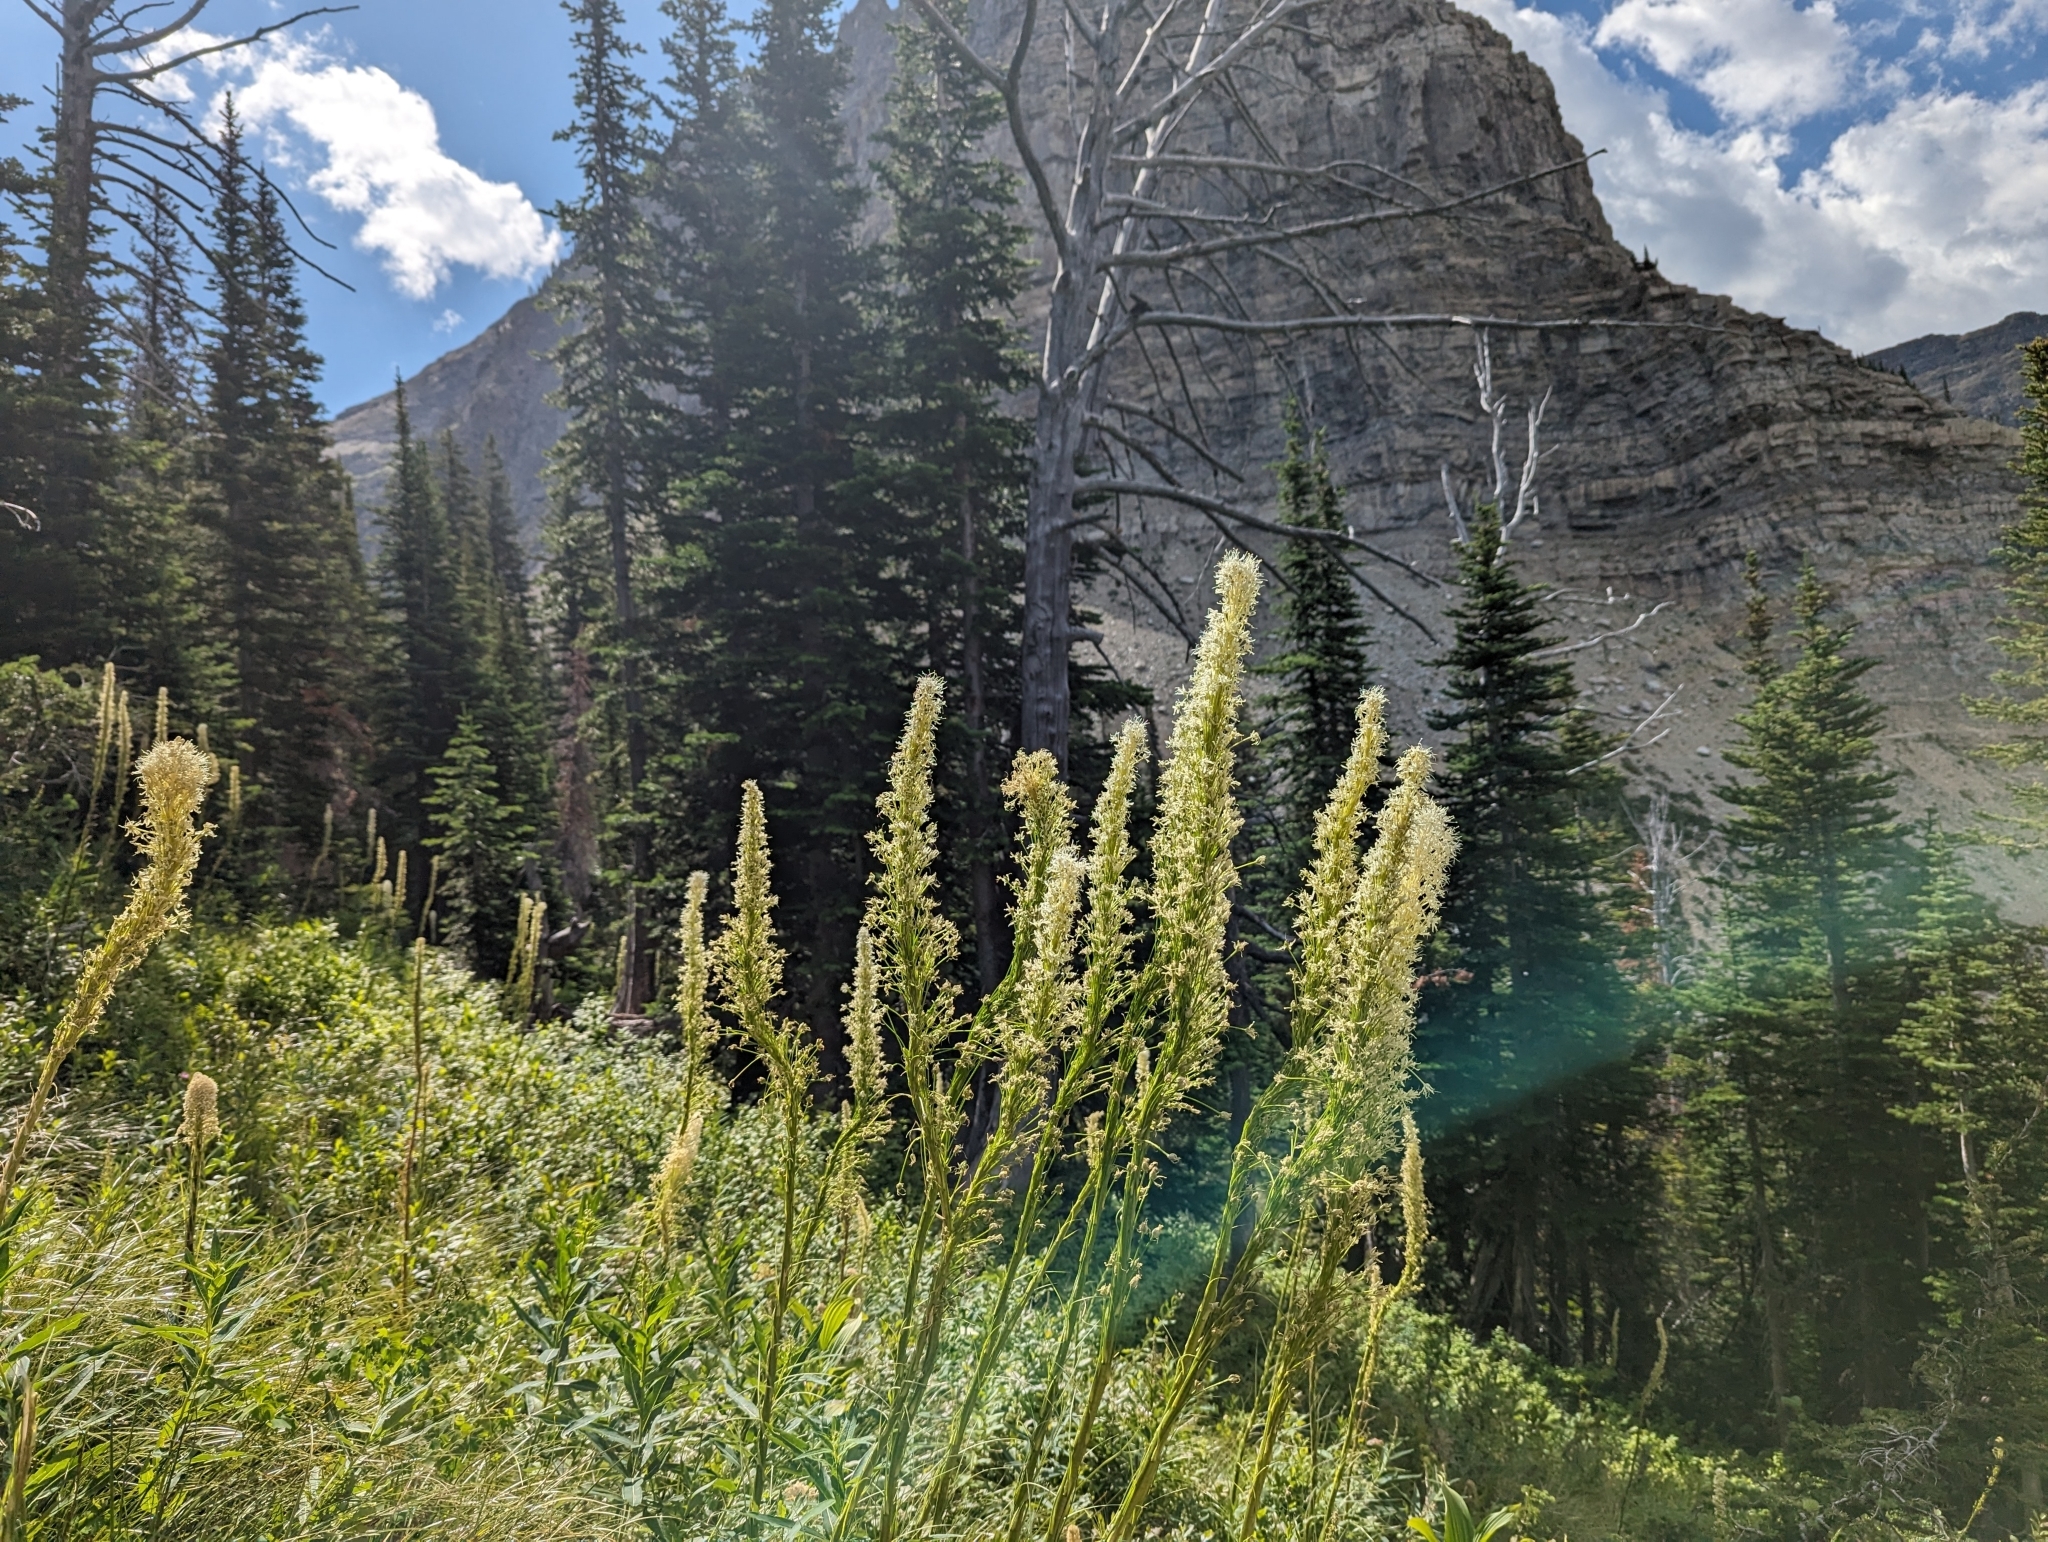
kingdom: Plantae
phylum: Tracheophyta
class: Liliopsida
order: Liliales
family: Melanthiaceae
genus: Xerophyllum
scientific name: Xerophyllum tenax
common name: Bear-grass
